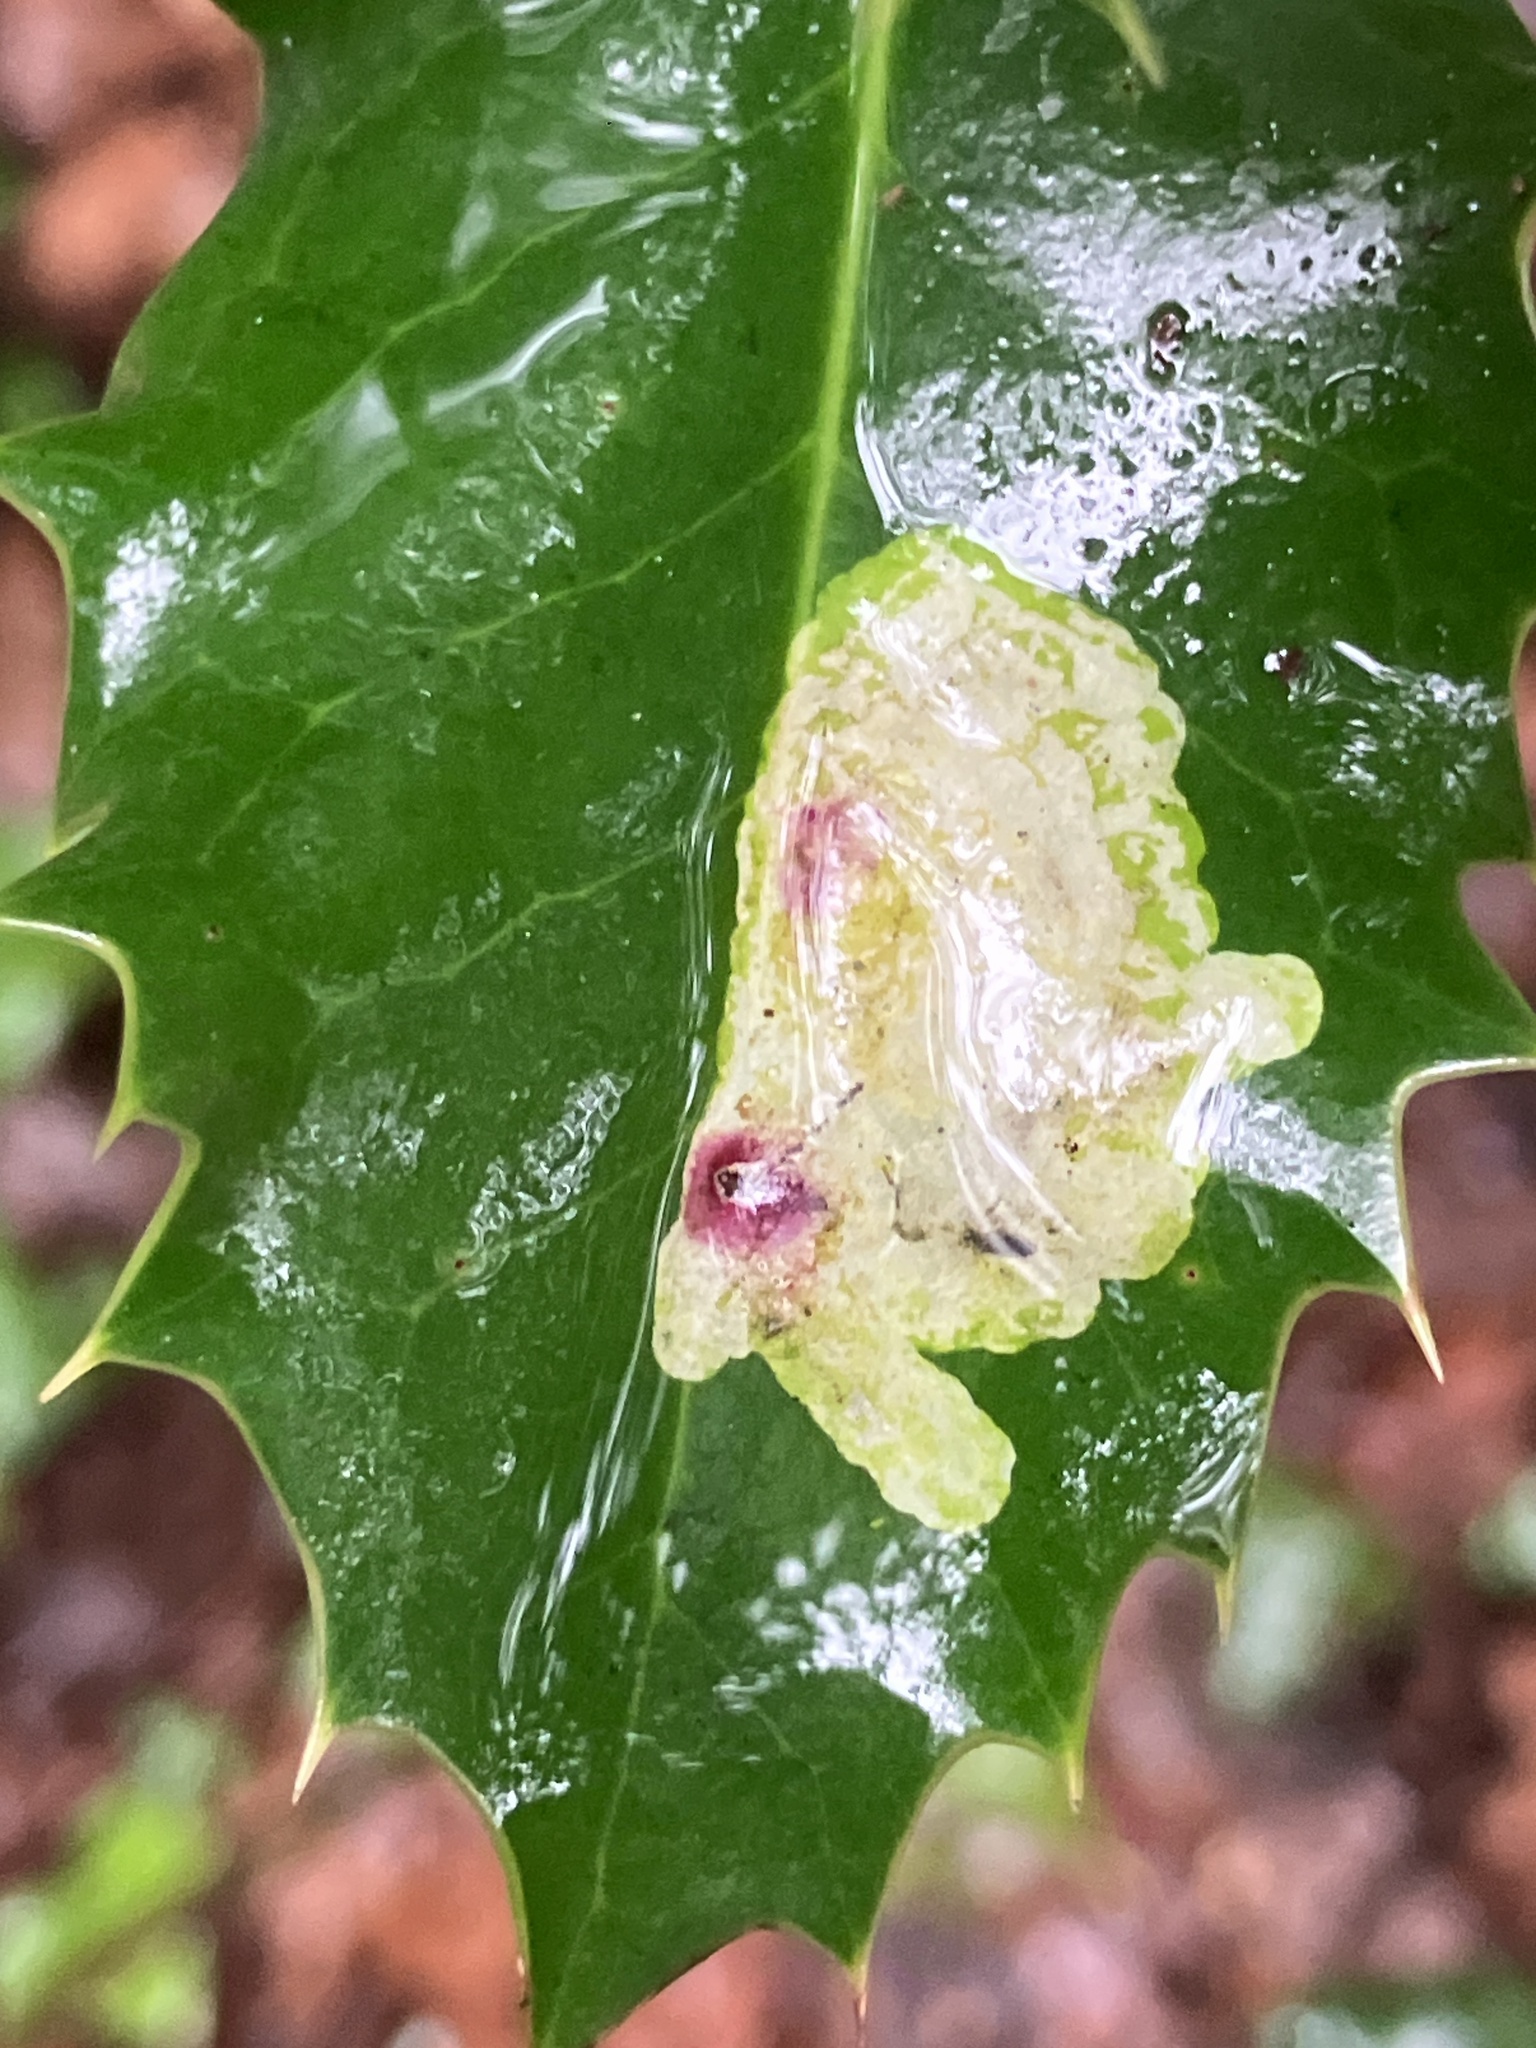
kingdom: Animalia
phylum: Arthropoda
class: Insecta
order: Diptera
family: Agromyzidae
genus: Phytomyza
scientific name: Phytomyza ilicis
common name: Holly leafminer
